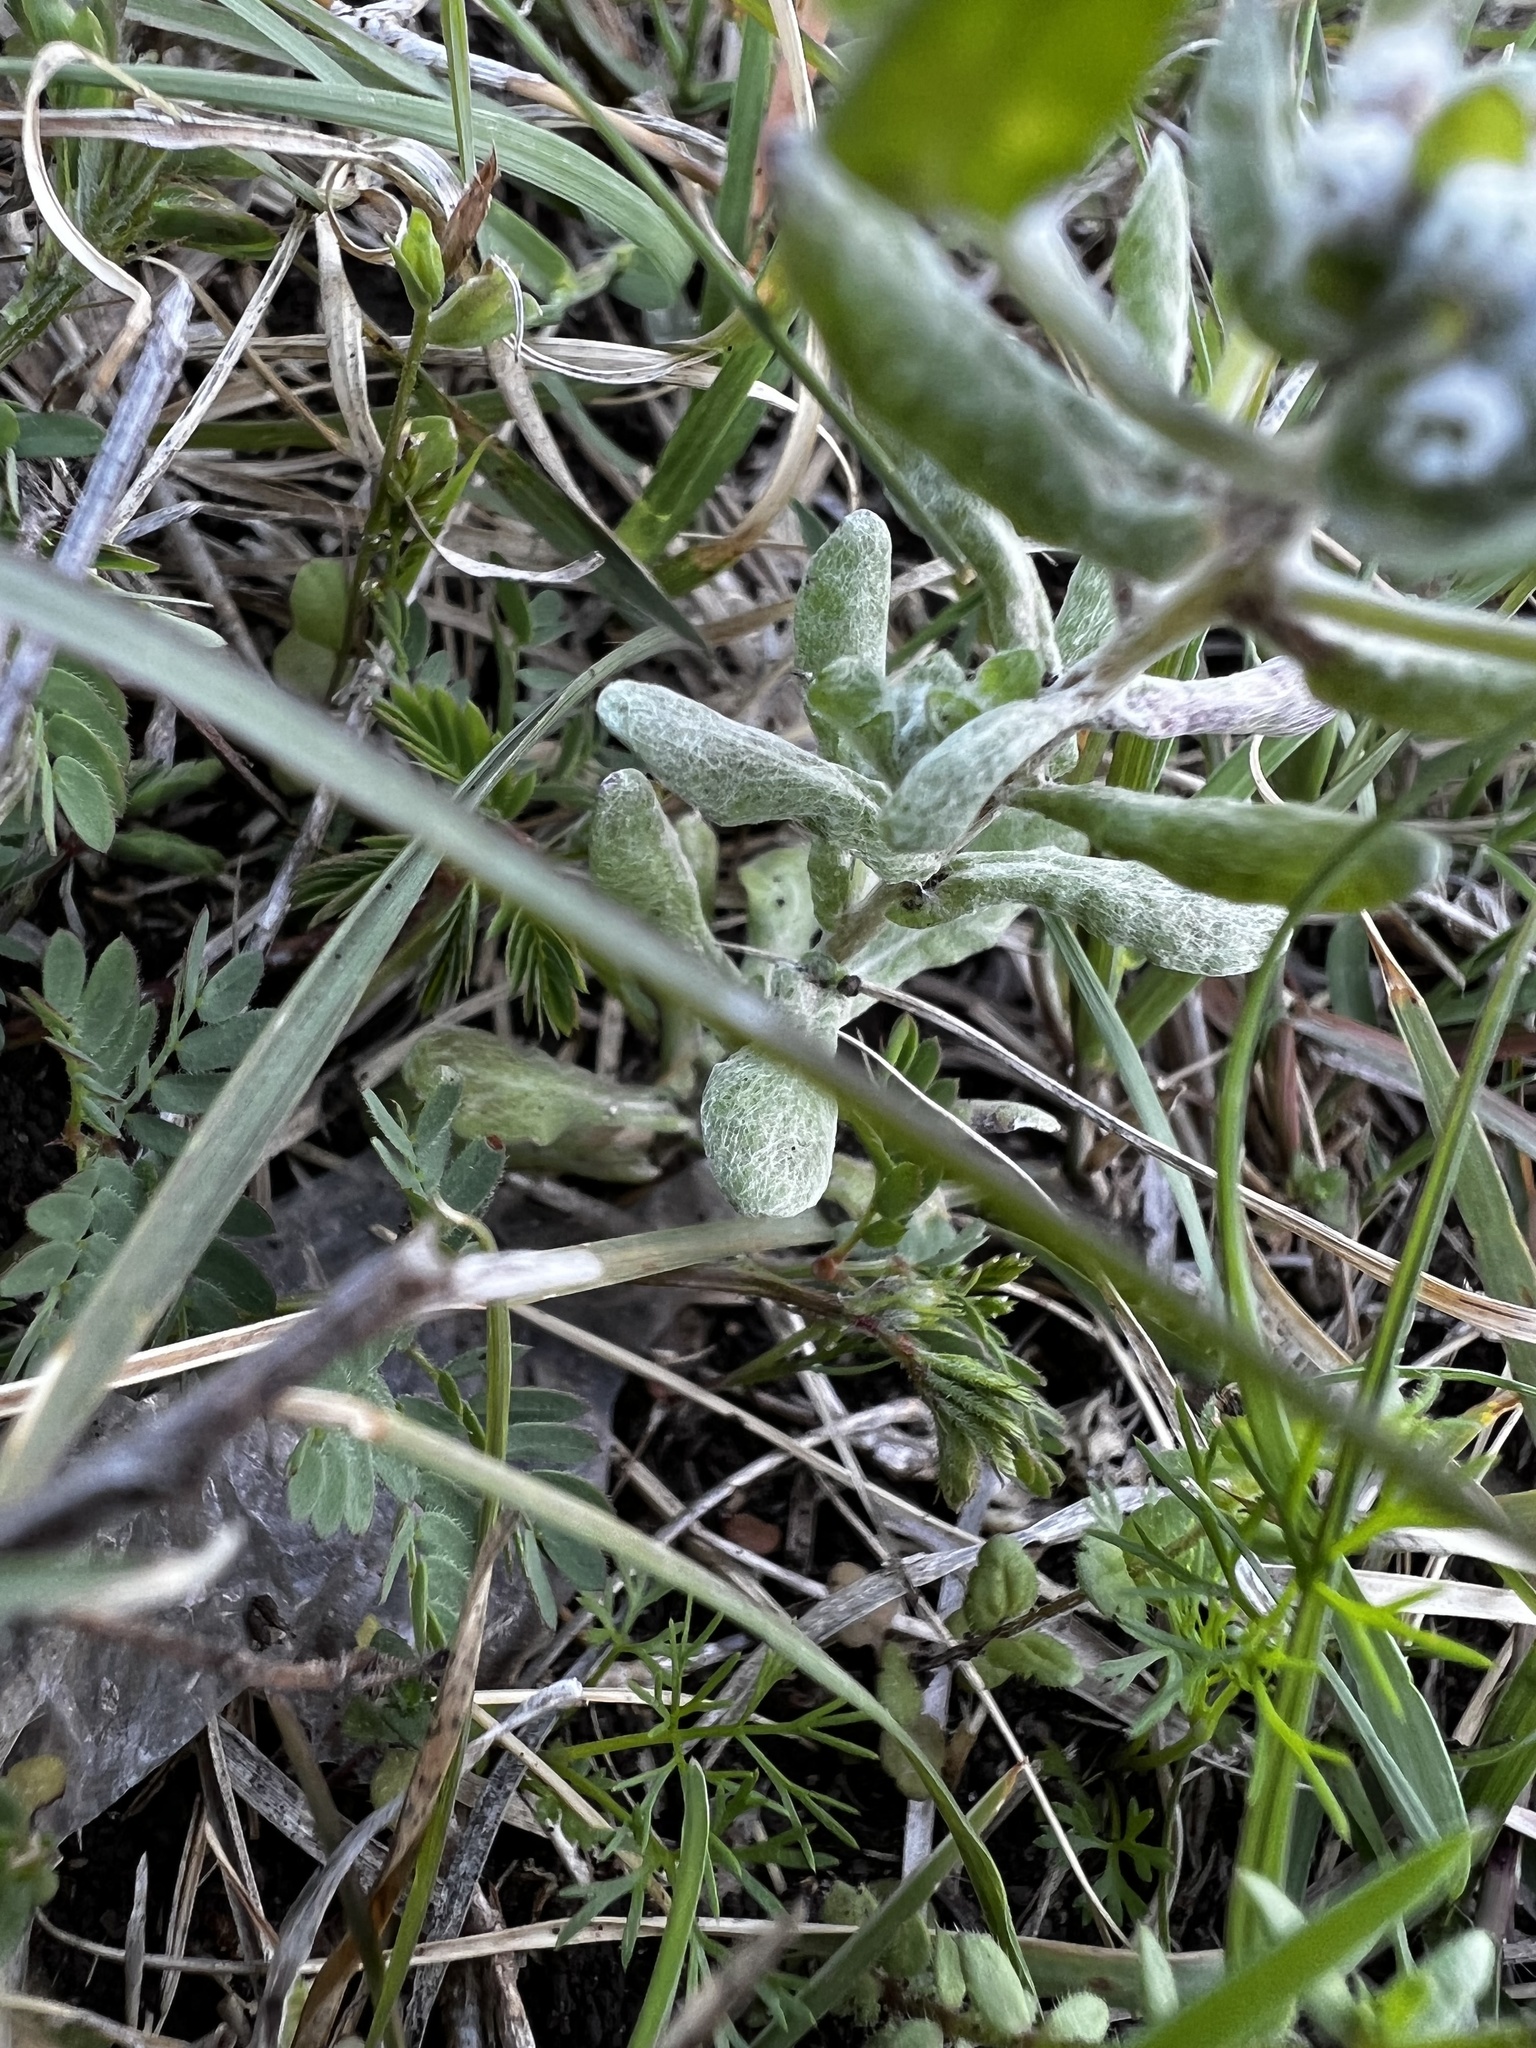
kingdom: Plantae
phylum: Tracheophyta
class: Magnoliopsida
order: Asterales
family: Asteraceae
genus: Diaperia
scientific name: Diaperia verna
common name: Many-stem rabbit-tobacco
